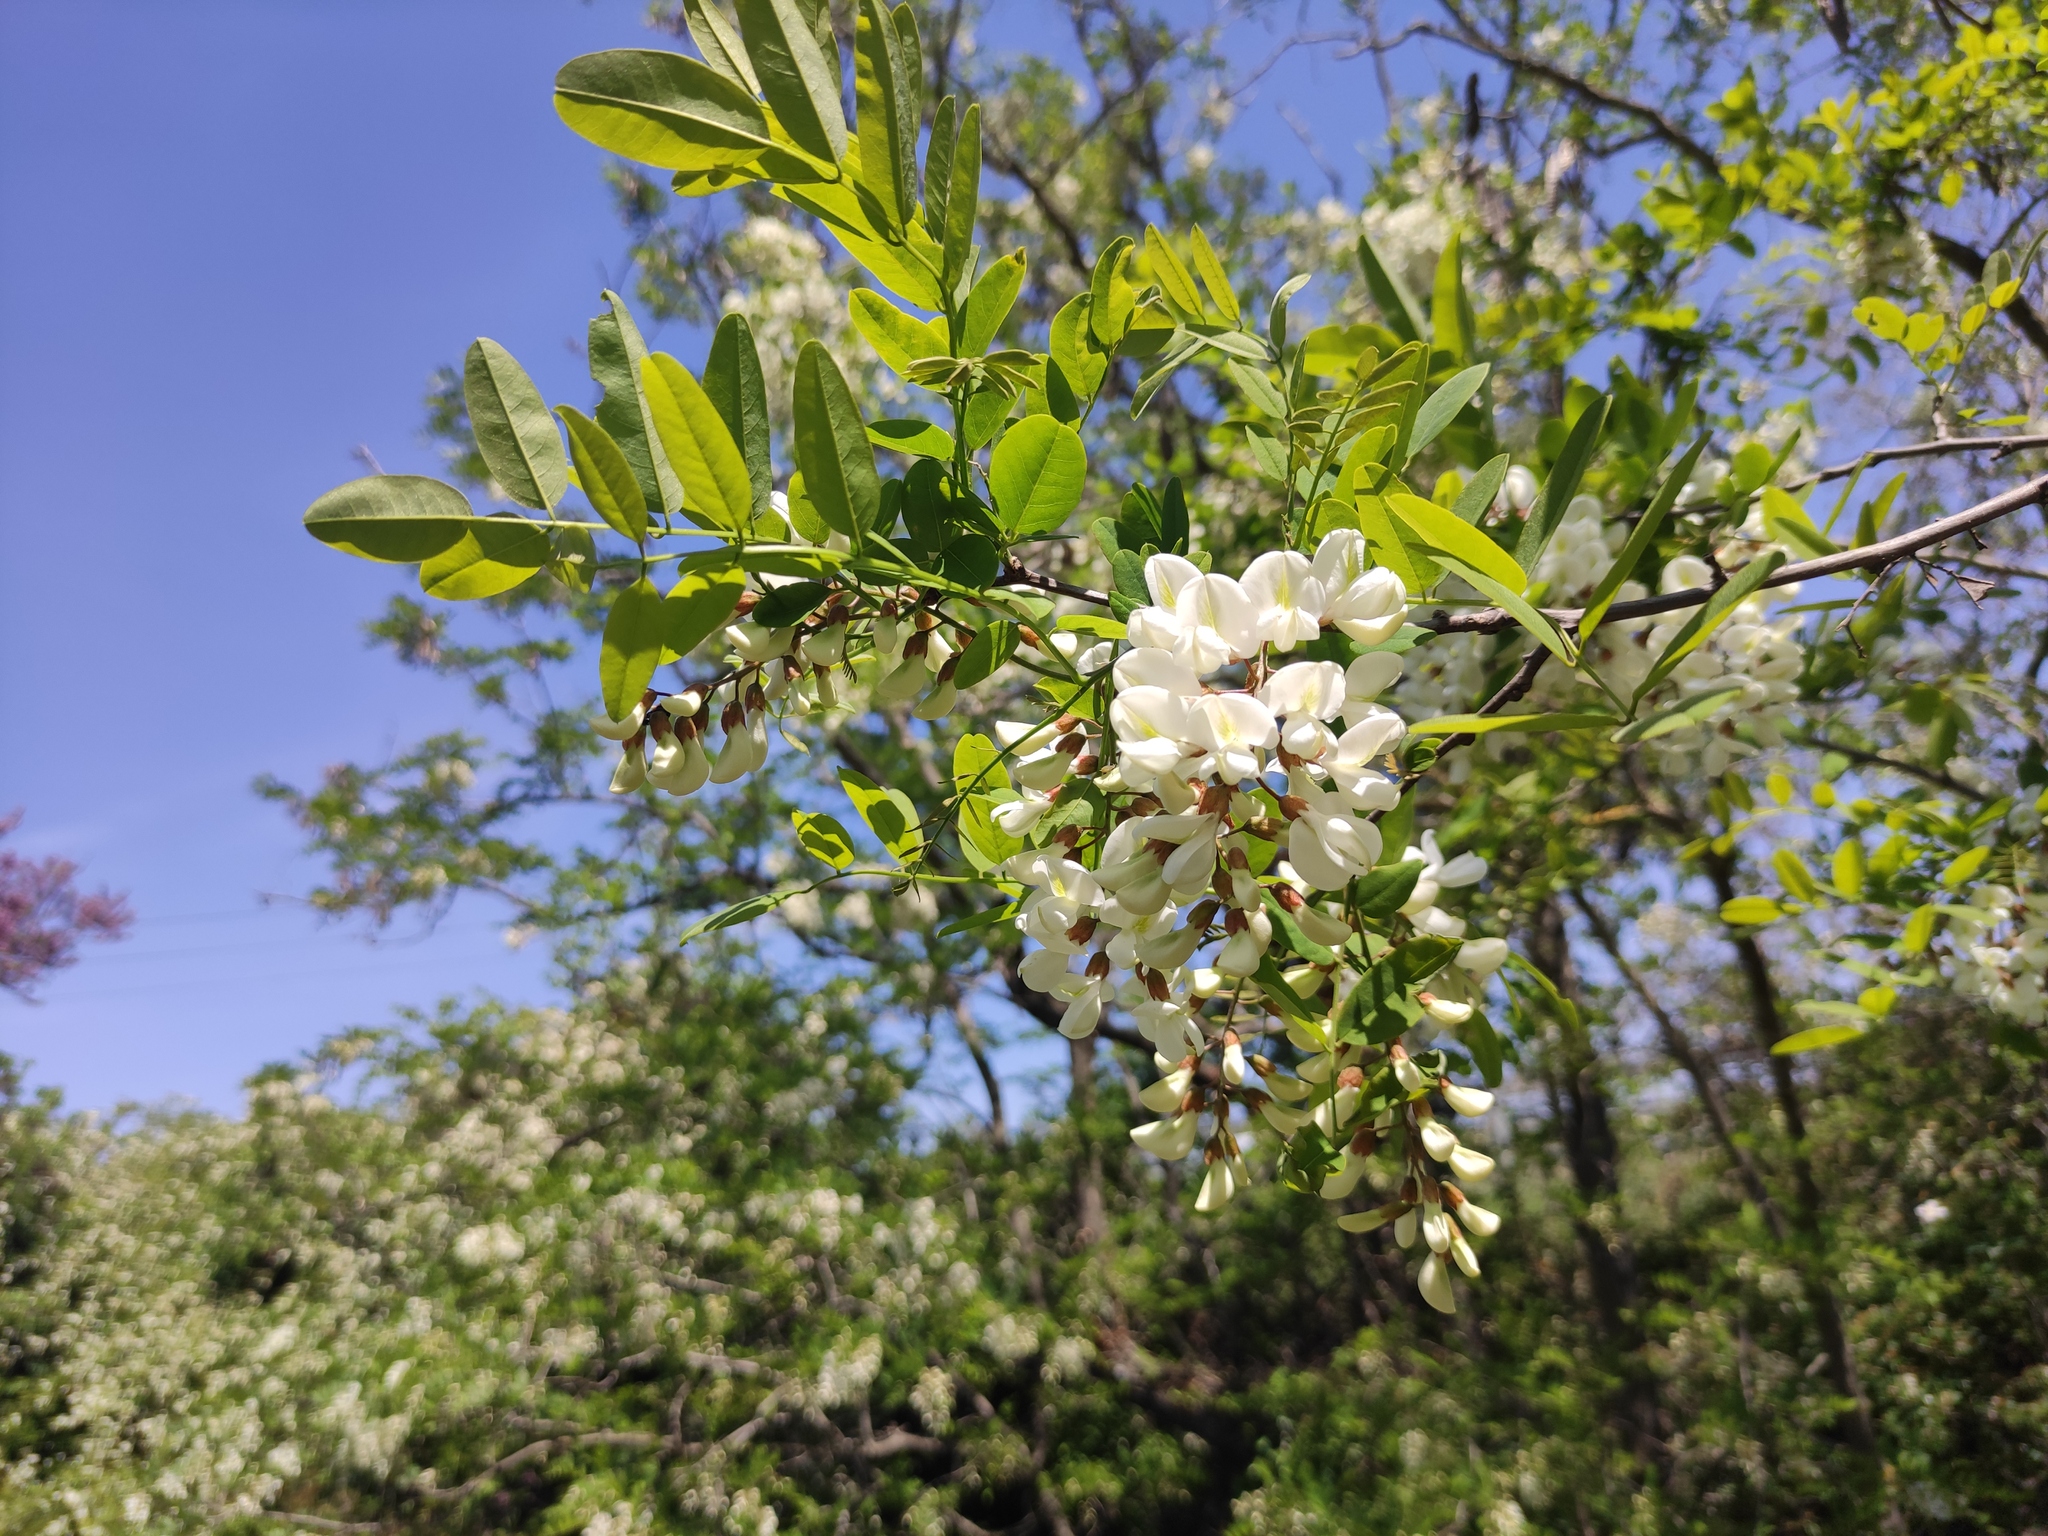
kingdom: Plantae
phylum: Tracheophyta
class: Magnoliopsida
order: Fabales
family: Fabaceae
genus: Robinia
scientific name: Robinia pseudoacacia
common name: Black locust
